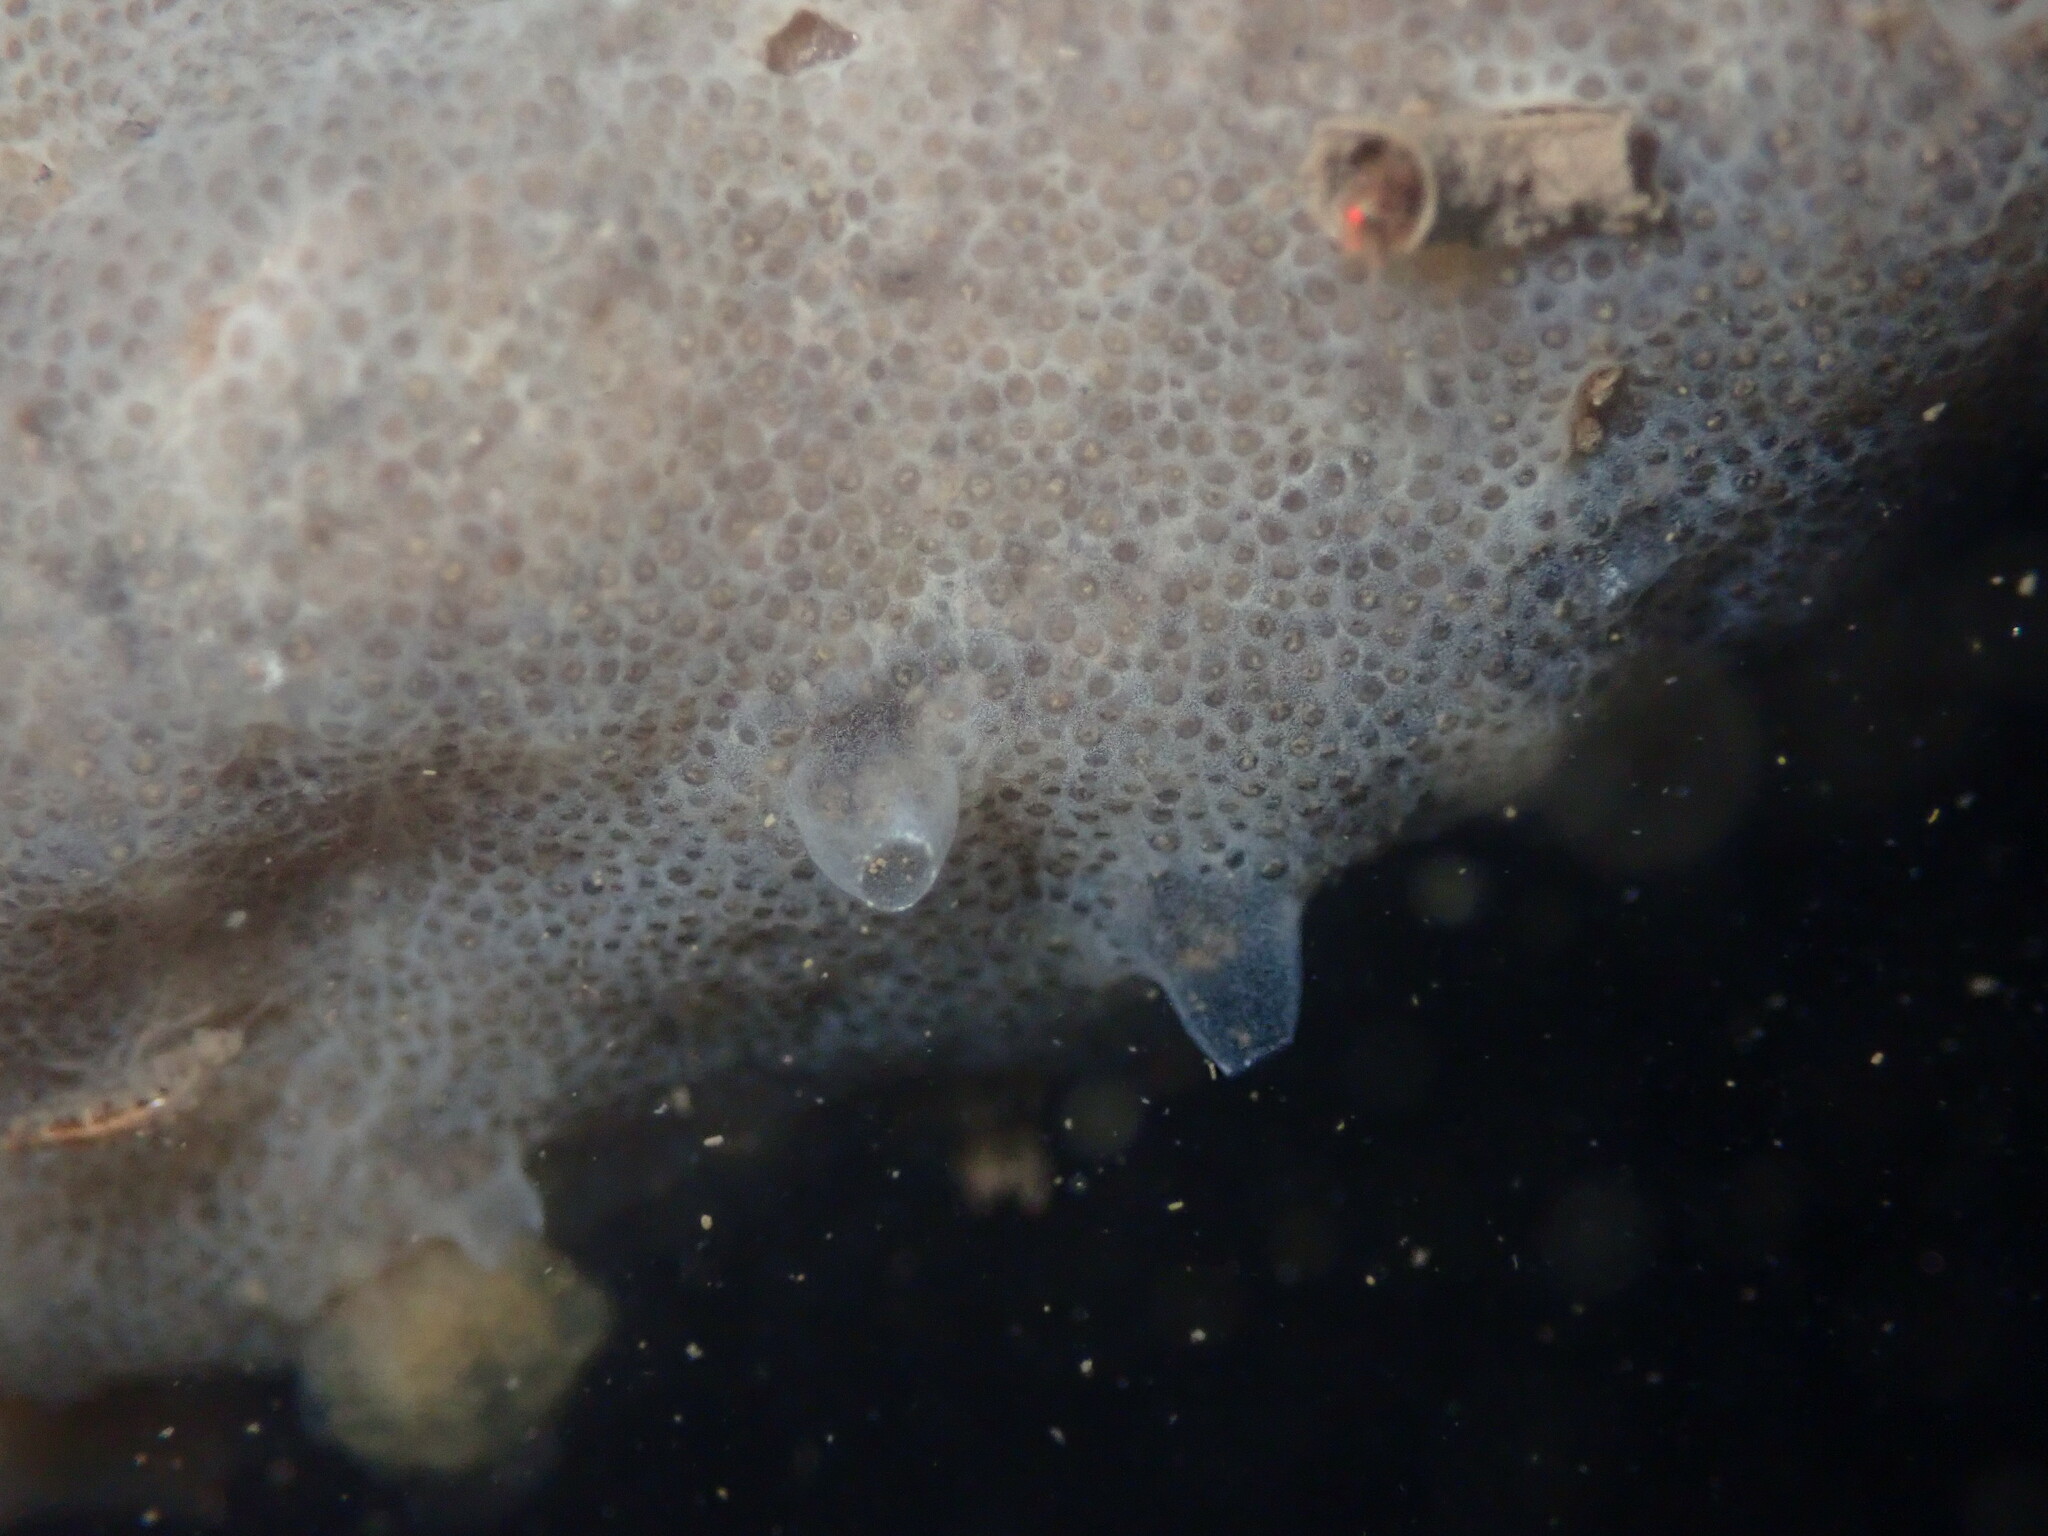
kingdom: Animalia
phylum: Chordata
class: Ascidiacea
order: Aplousobranchia
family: Didemnidae
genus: Diplosoma
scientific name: Diplosoma listerianum
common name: Compound sea squirt
